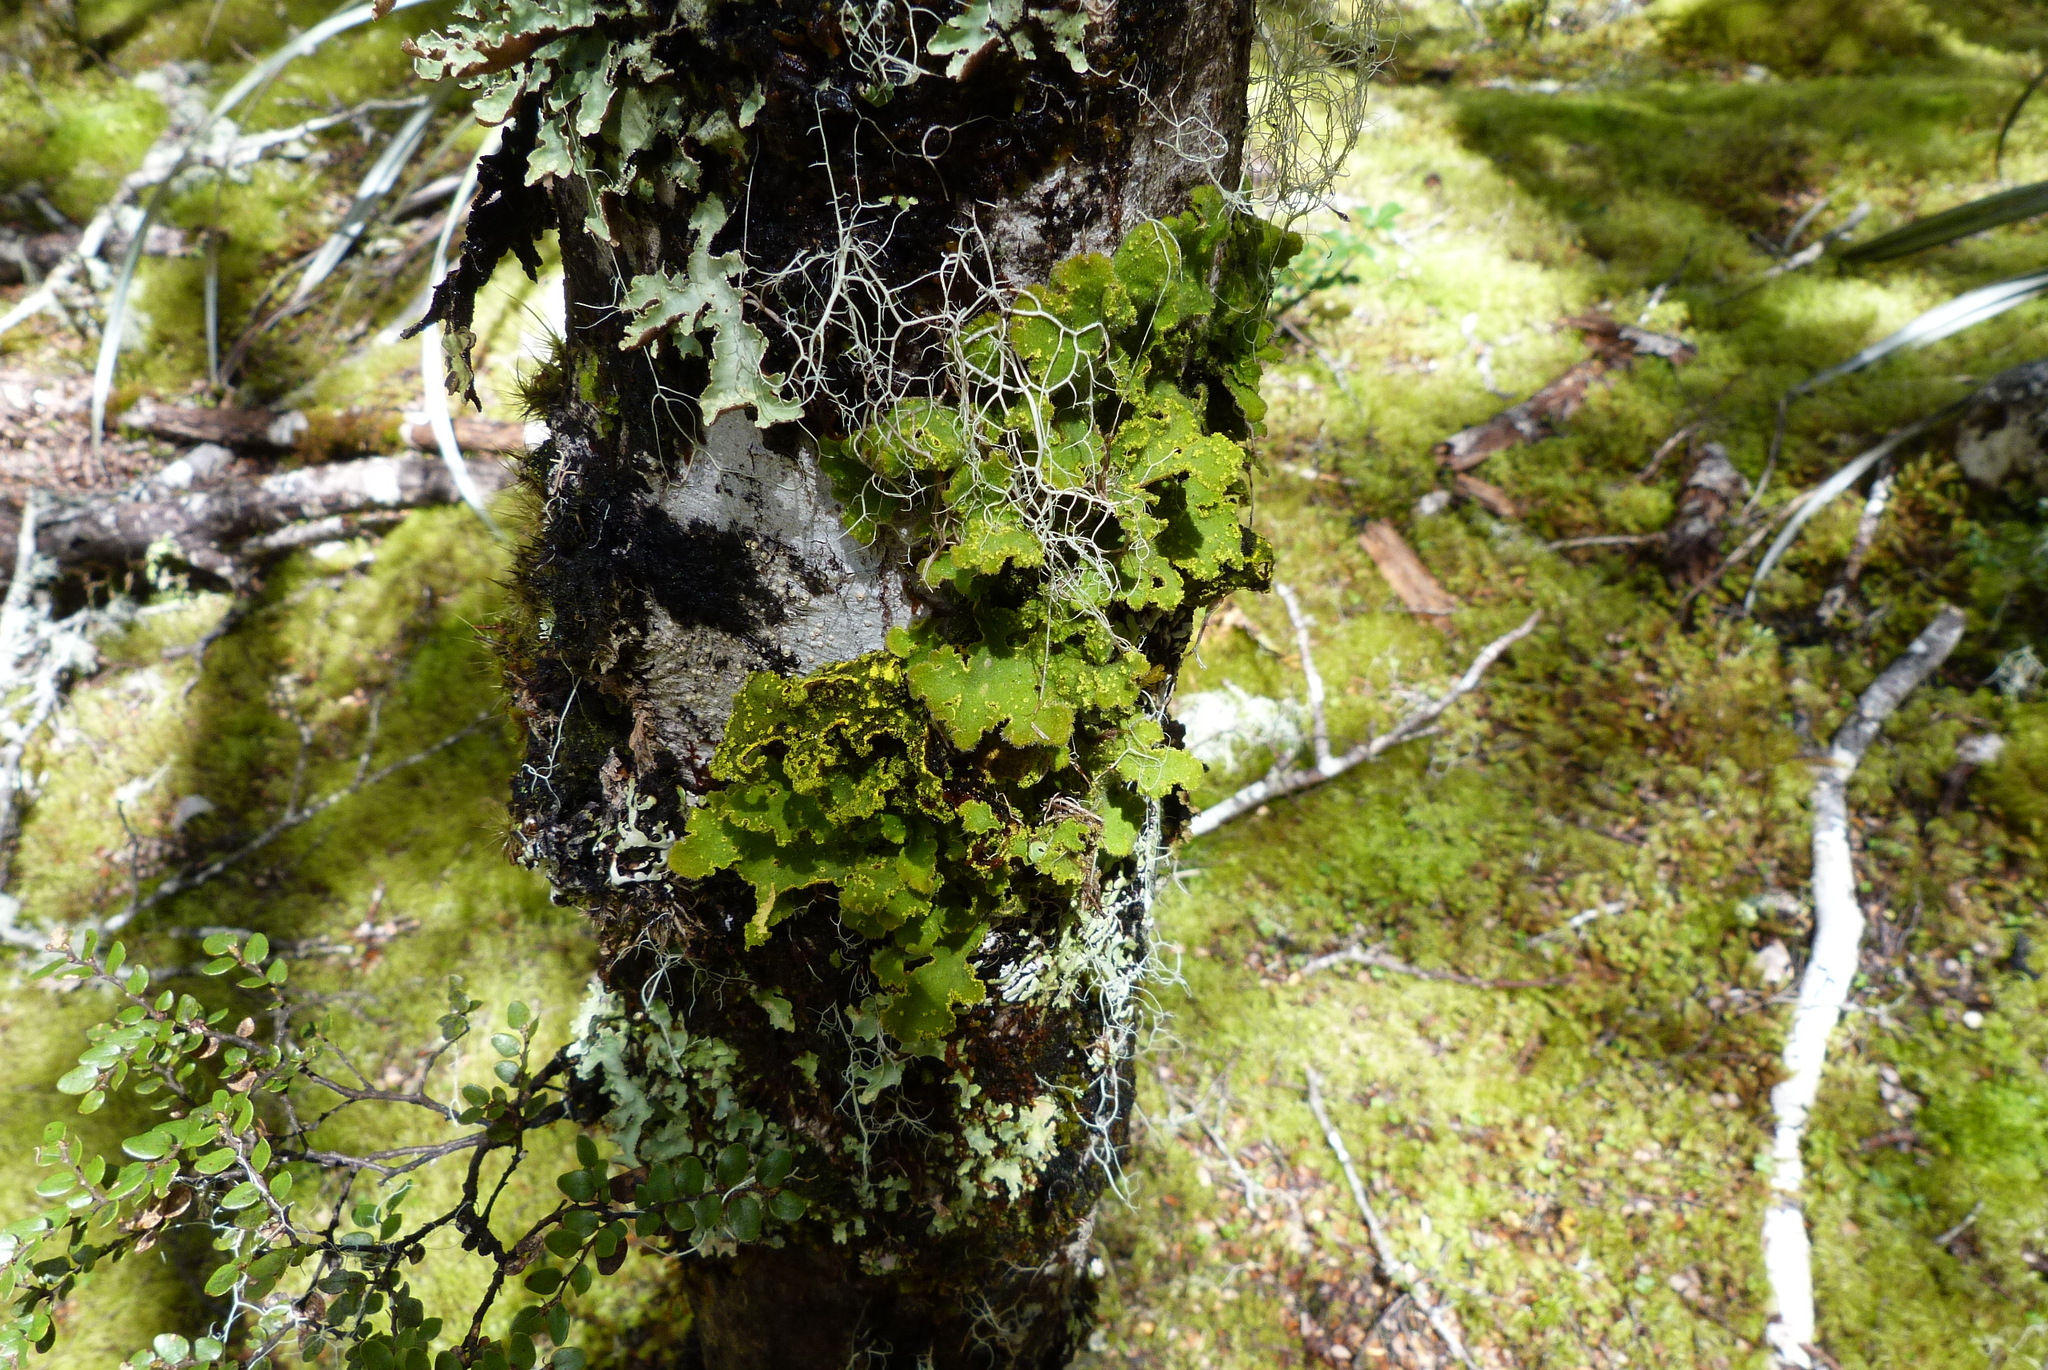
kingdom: Fungi
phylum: Ascomycota
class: Lecanoromycetes
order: Peltigerales
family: Lobariaceae
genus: Pseudocyphellaria
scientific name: Pseudocyphellaria rubella
